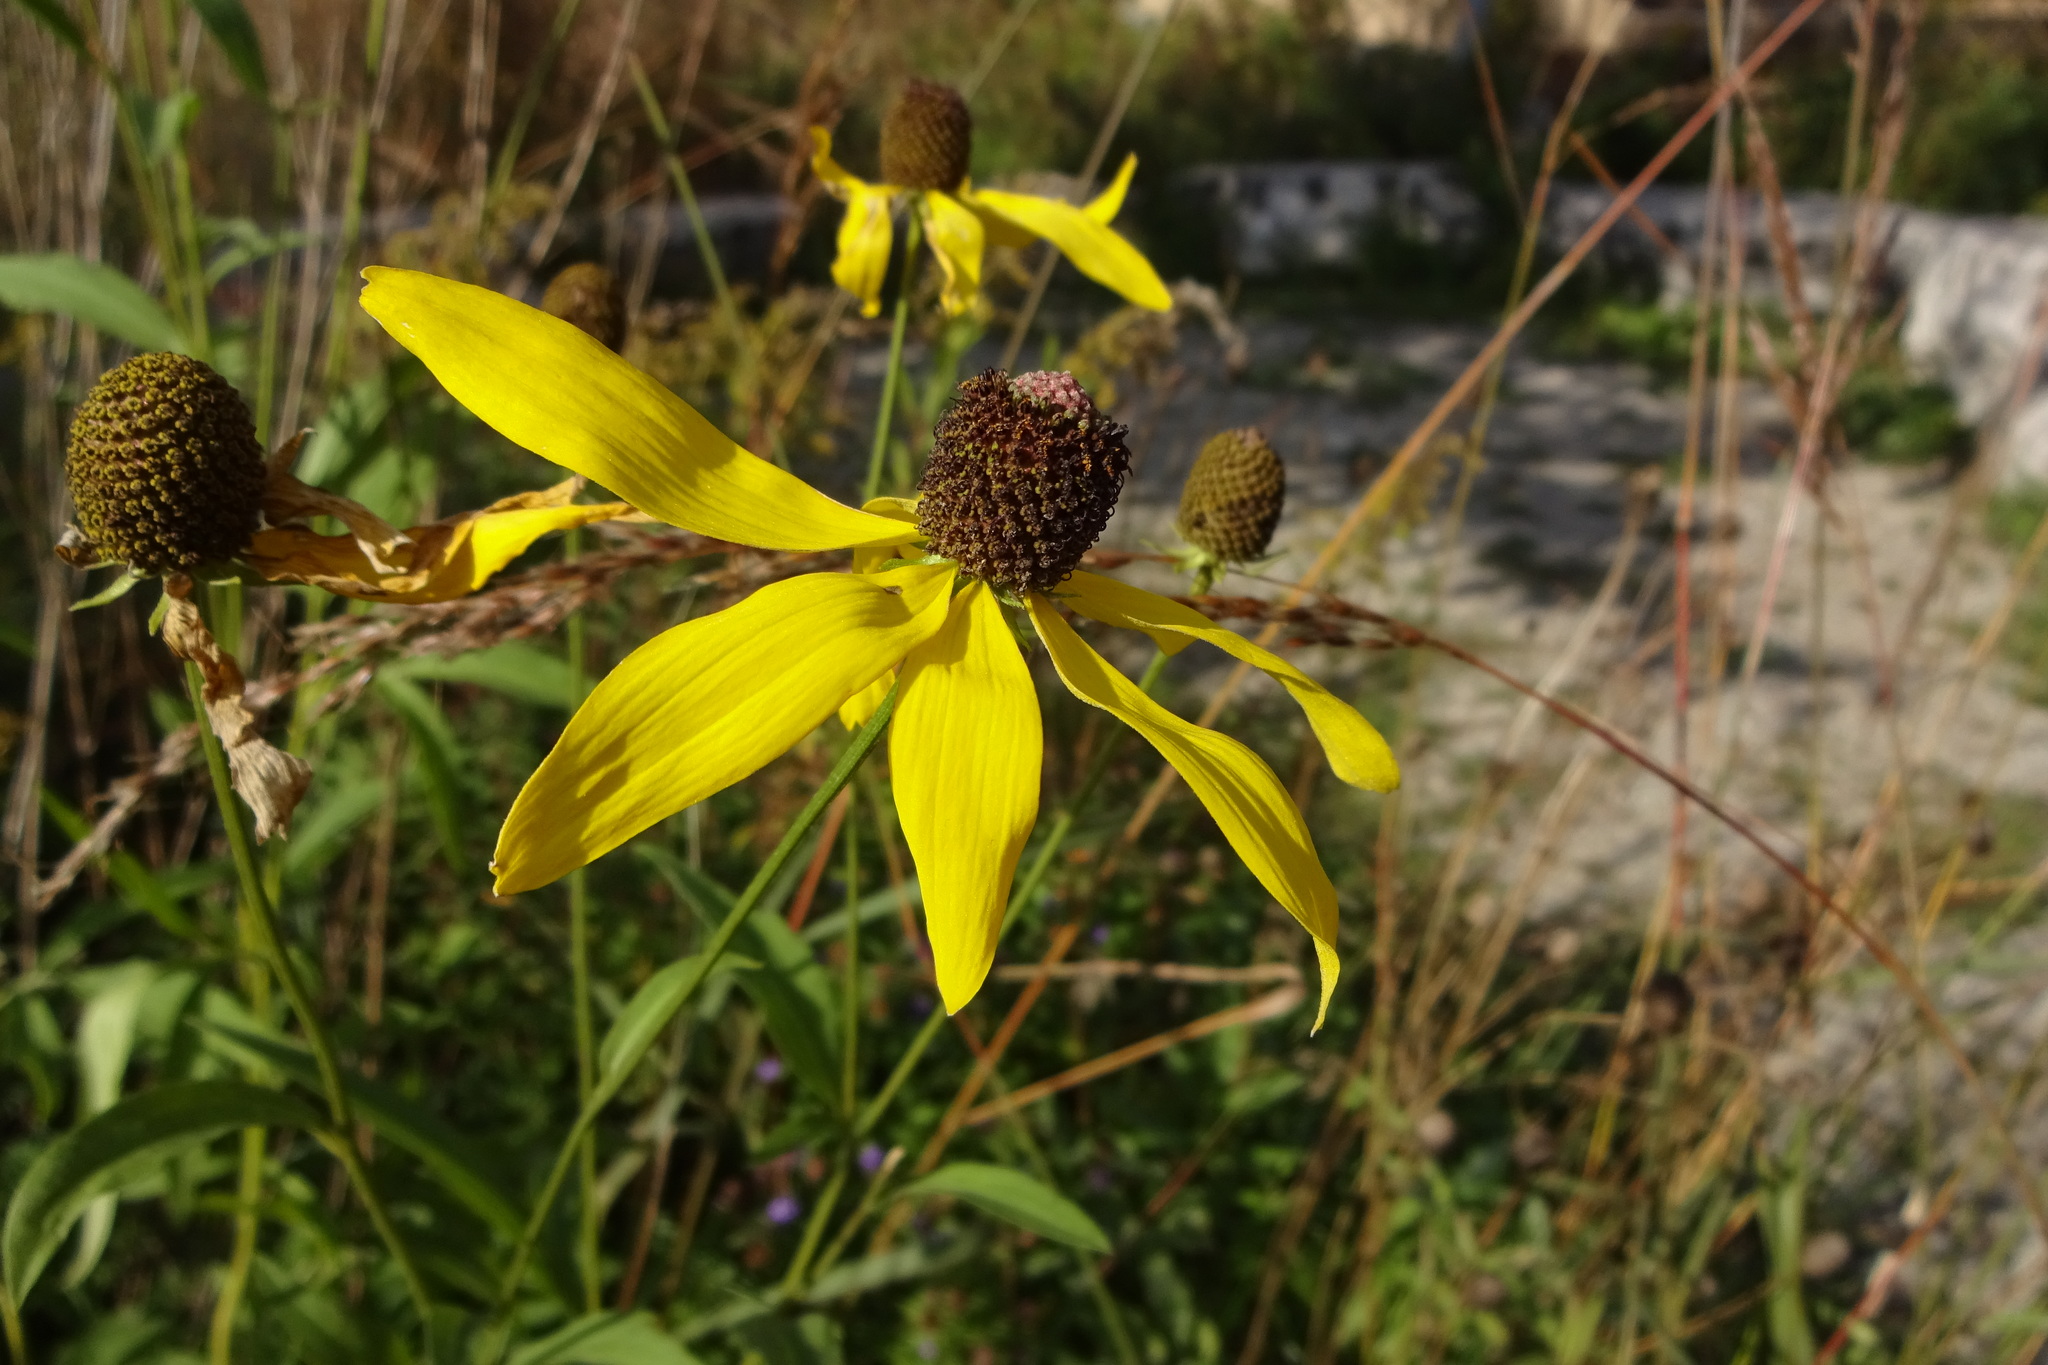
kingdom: Plantae
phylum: Tracheophyta
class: Magnoliopsida
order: Asterales
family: Asteraceae
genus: Ratibida
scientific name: Ratibida pinnata
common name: Drooping prairie-coneflower
